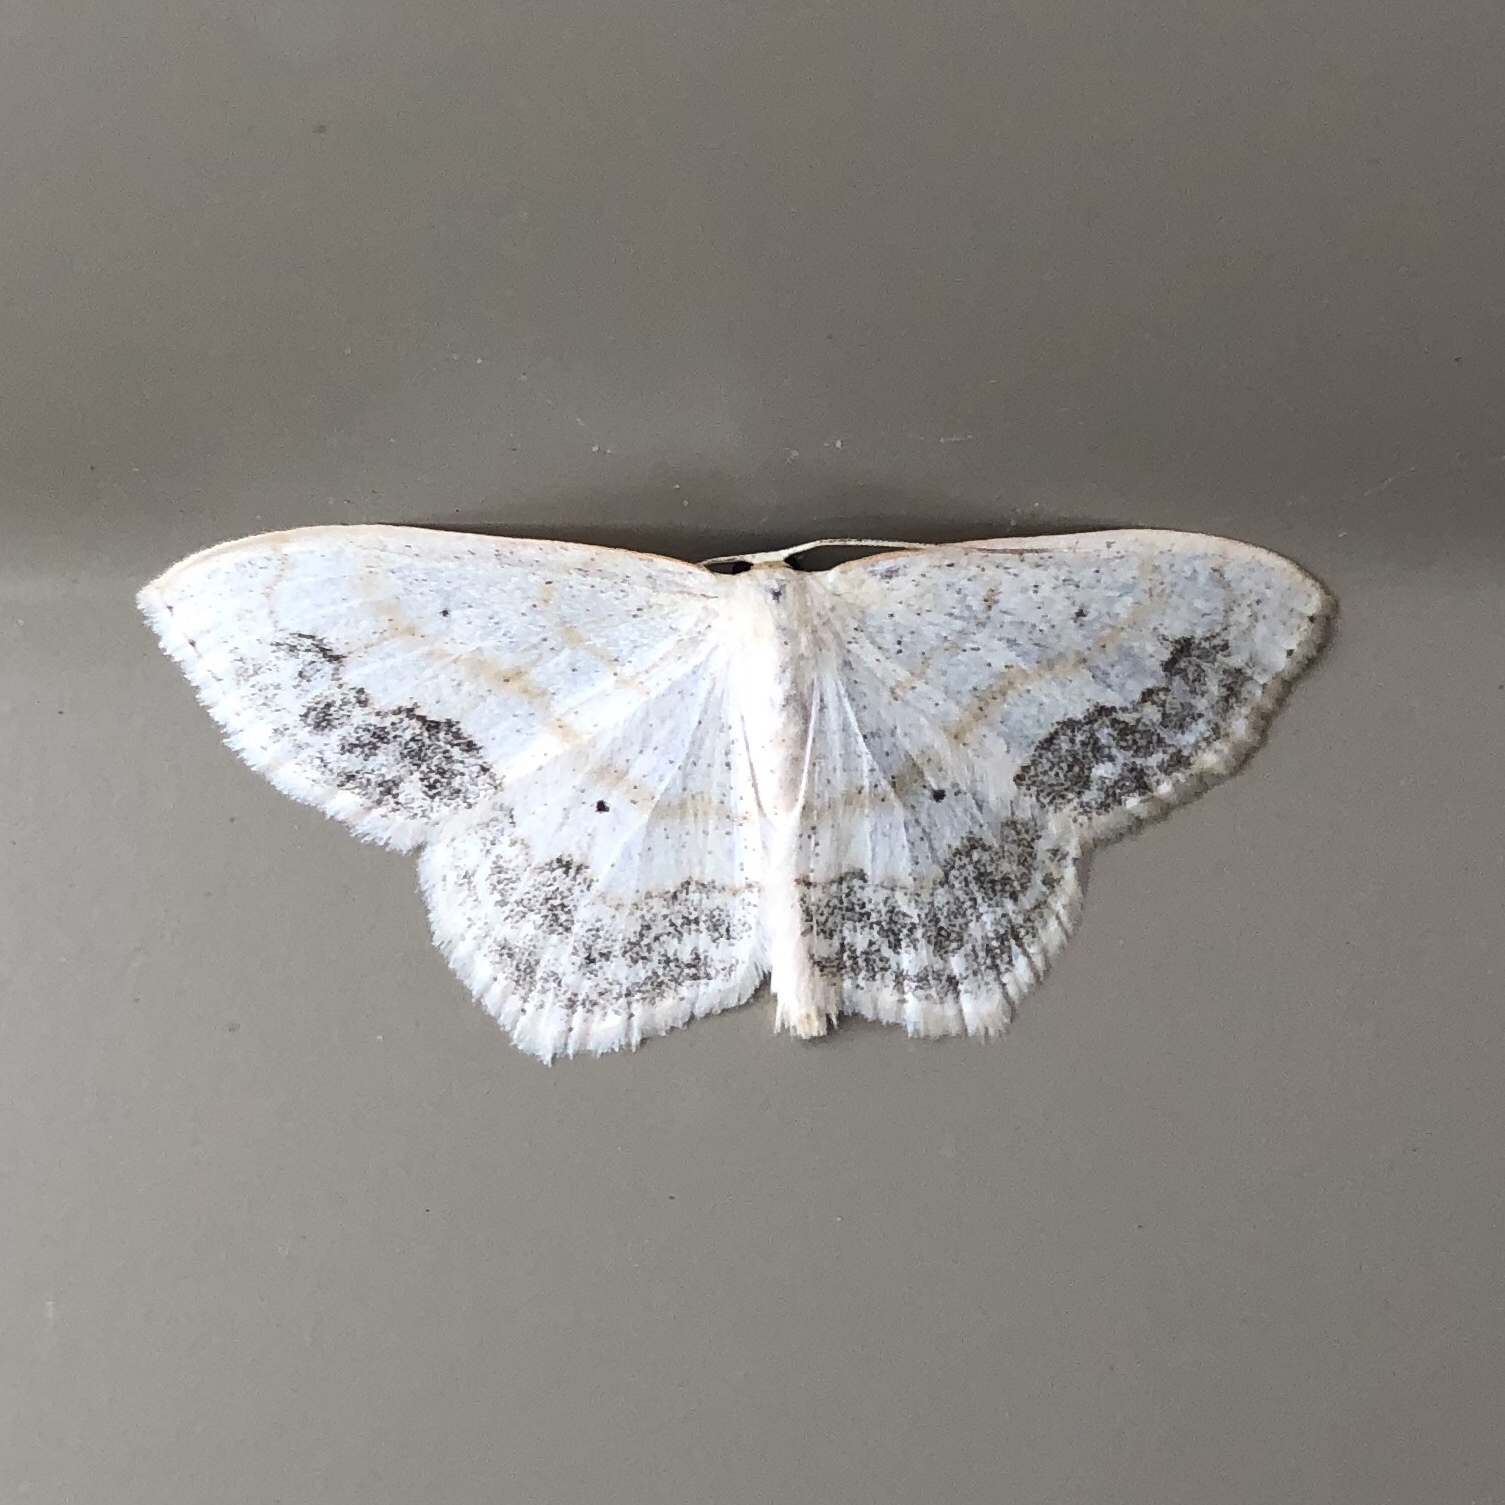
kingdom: Animalia
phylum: Arthropoda
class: Insecta
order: Lepidoptera
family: Geometridae
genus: Scopula
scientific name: Scopula limboundata
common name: Large lace border
